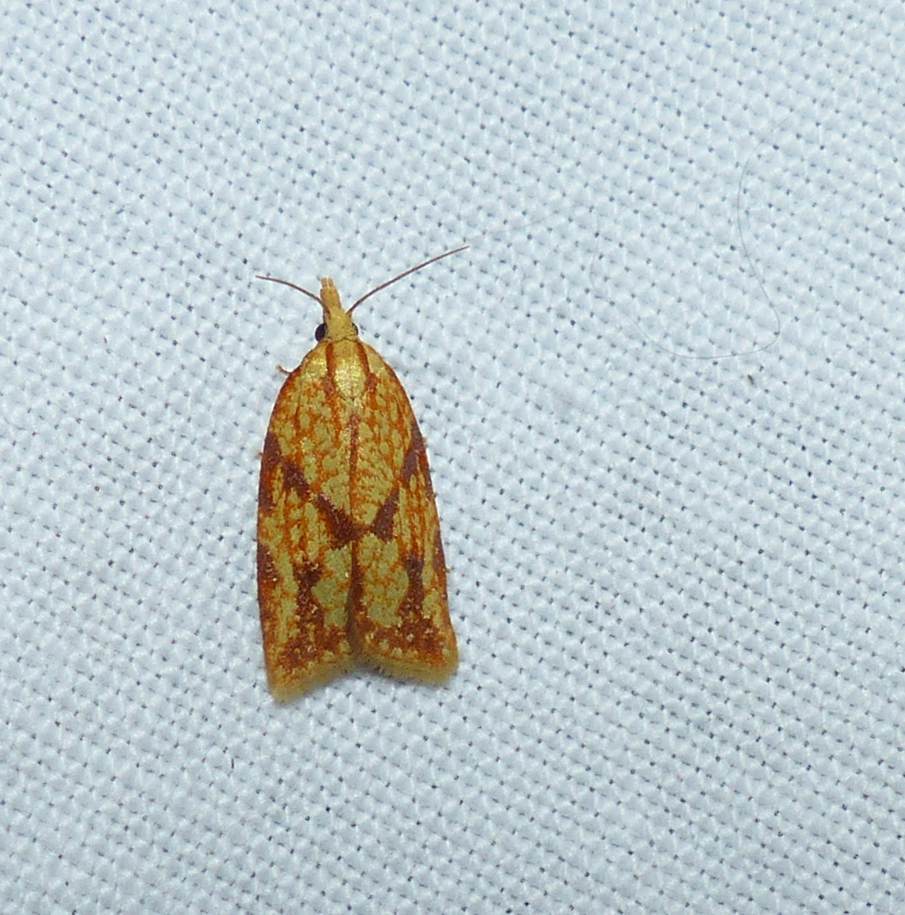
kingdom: Animalia
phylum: Arthropoda
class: Insecta
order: Lepidoptera
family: Tortricidae
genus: Sparganothis
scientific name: Sparganothis sulfureana
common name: Sparganothis fruitworm moth
